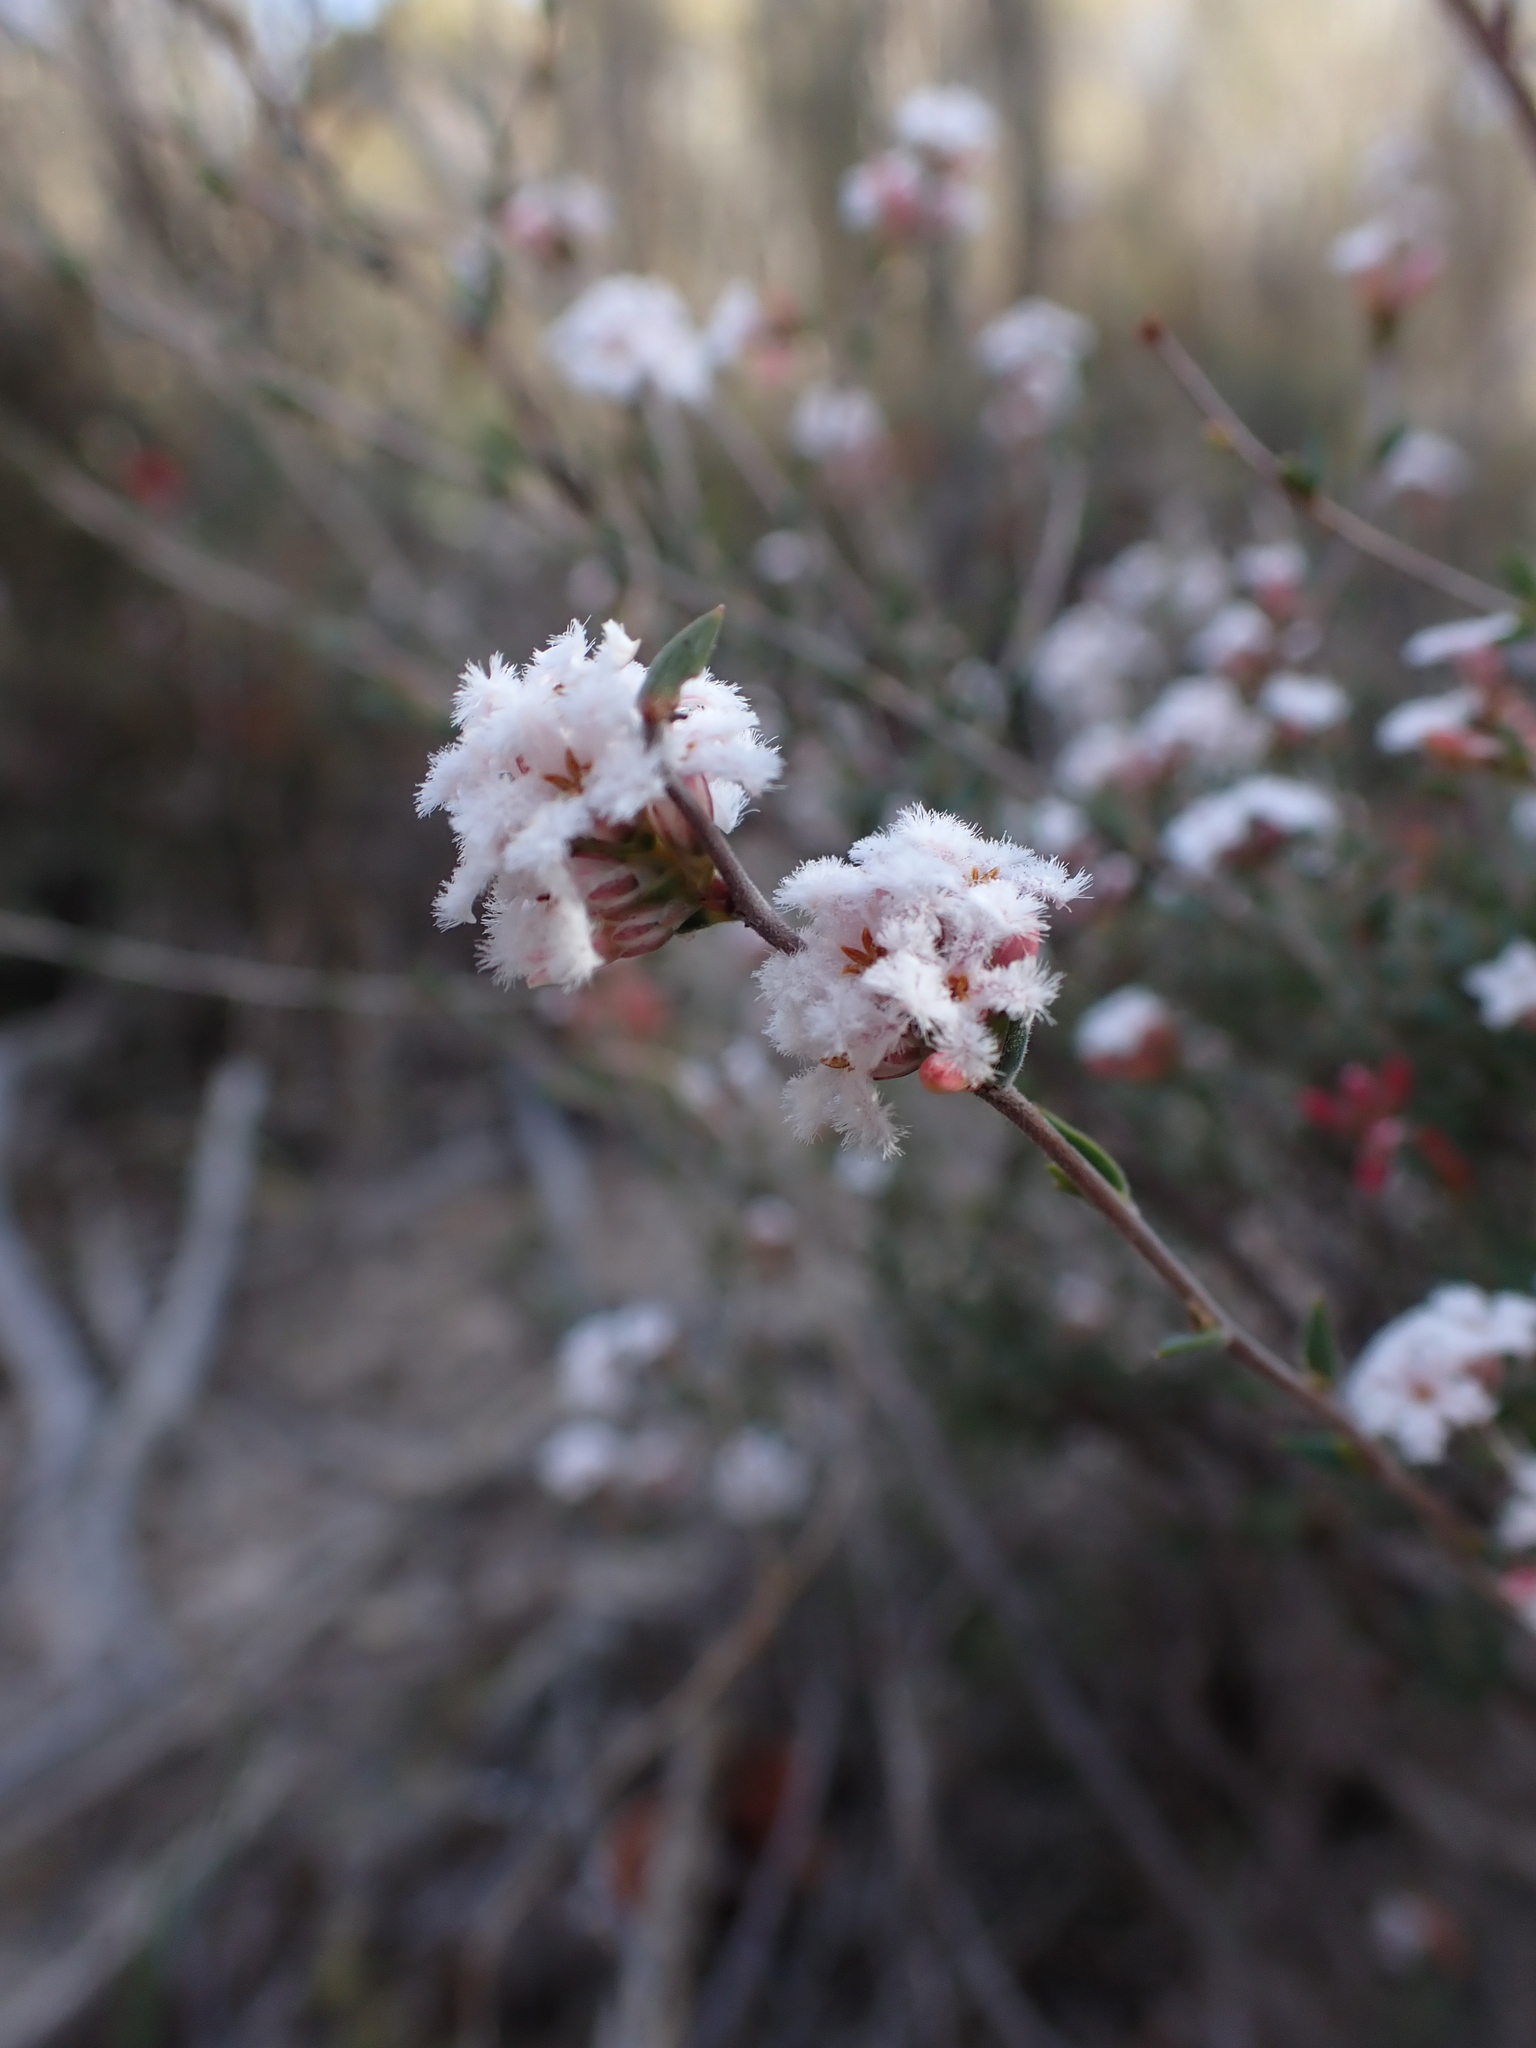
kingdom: Plantae
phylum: Tracheophyta
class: Magnoliopsida
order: Ericales
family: Ericaceae
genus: Leucopogon
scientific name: Leucopogon virgatus
